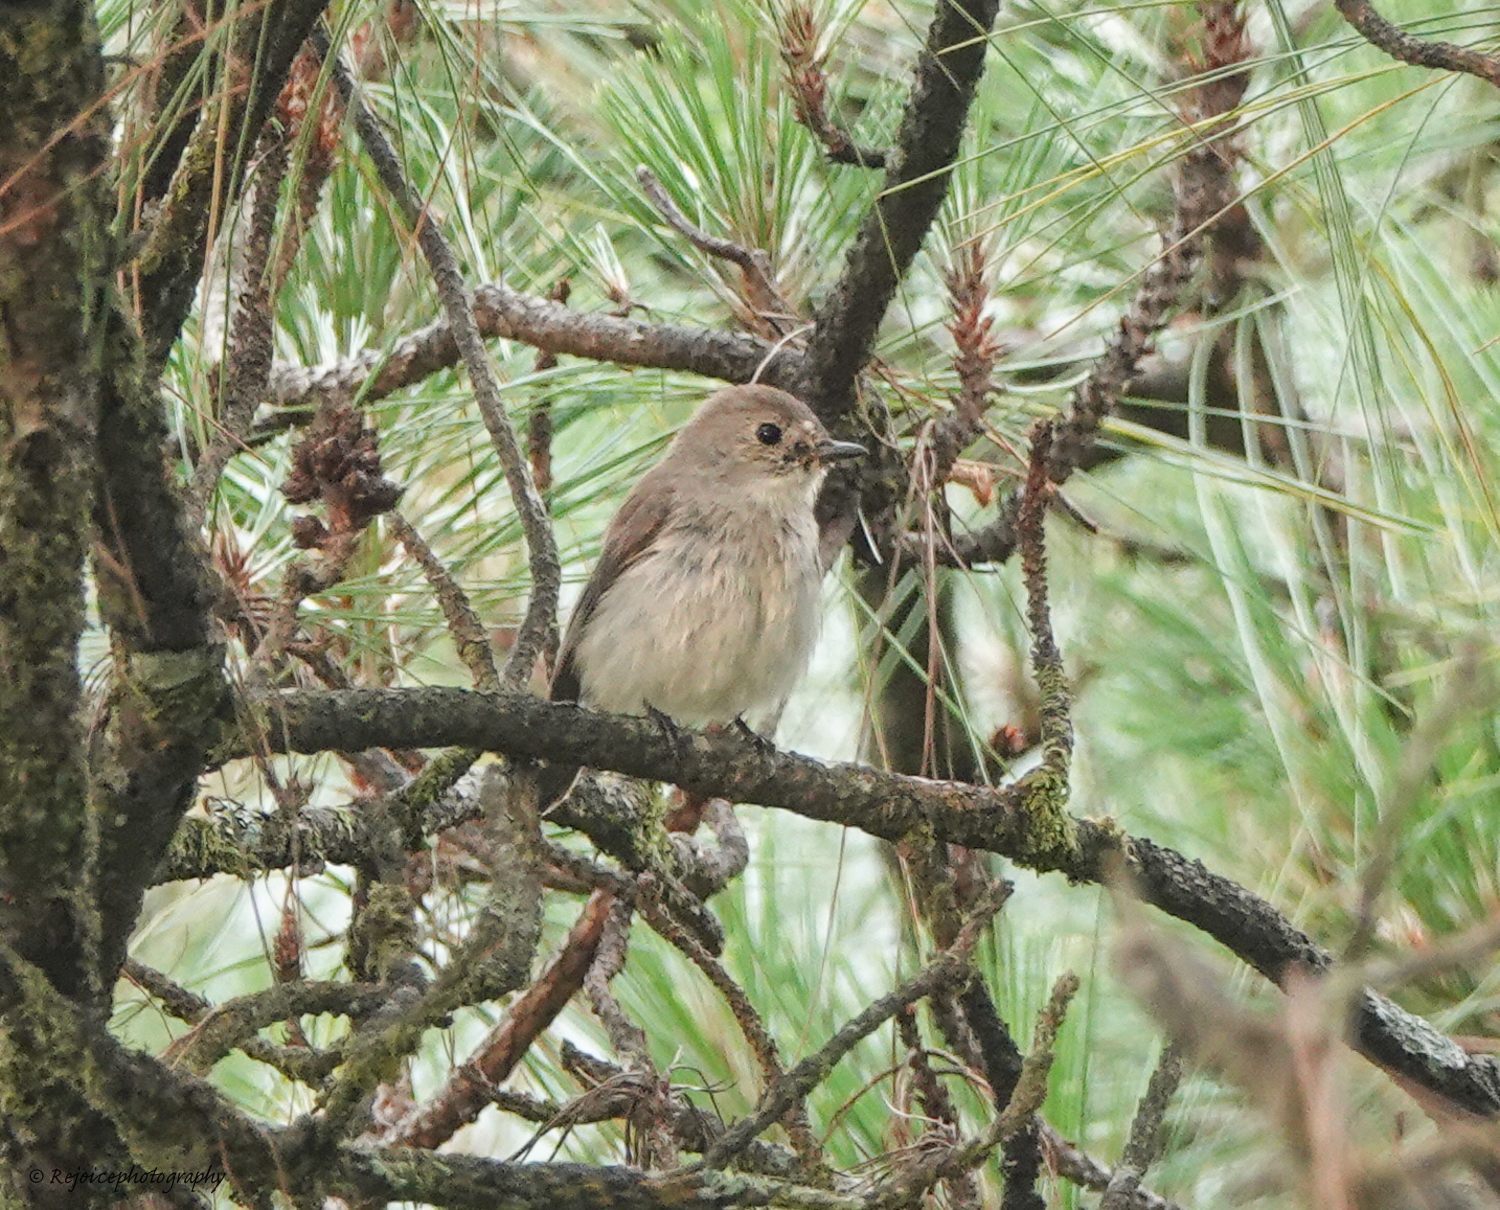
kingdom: Animalia
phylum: Chordata
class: Aves
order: Passeriformes
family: Muscicapidae
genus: Ficedula
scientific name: Ficedula albicilla
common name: Taiga flycatcher
